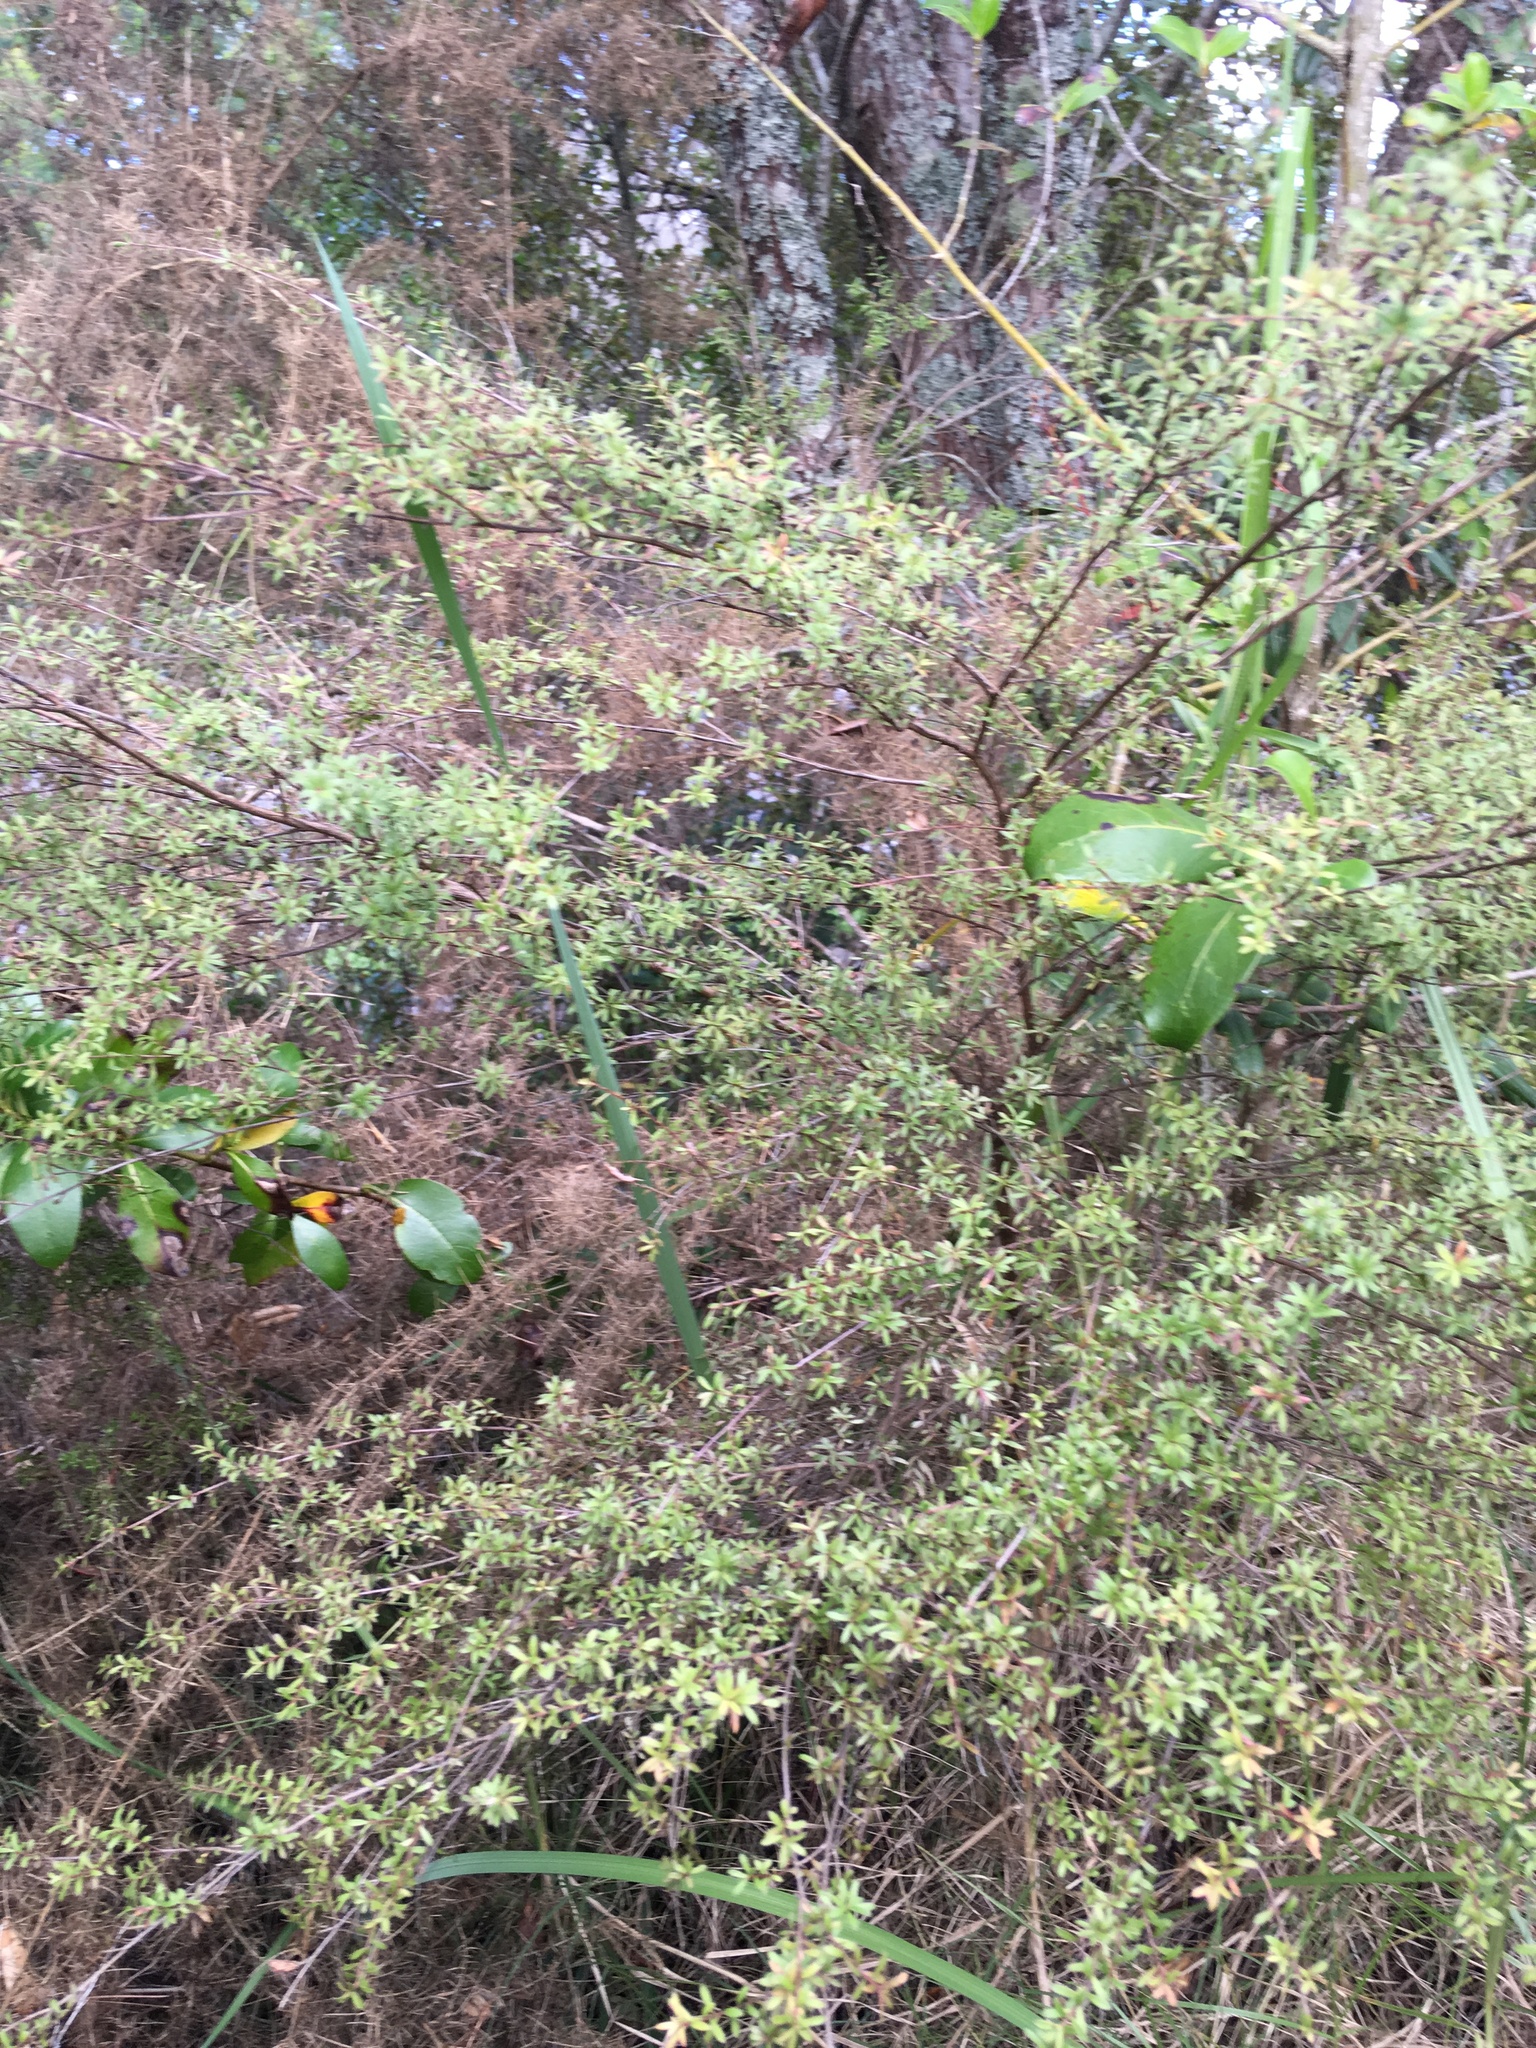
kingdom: Plantae
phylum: Tracheophyta
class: Magnoliopsida
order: Myrtales
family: Myrtaceae
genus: Leptospermum
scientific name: Leptospermum scoparium
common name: Broom tea-tree
